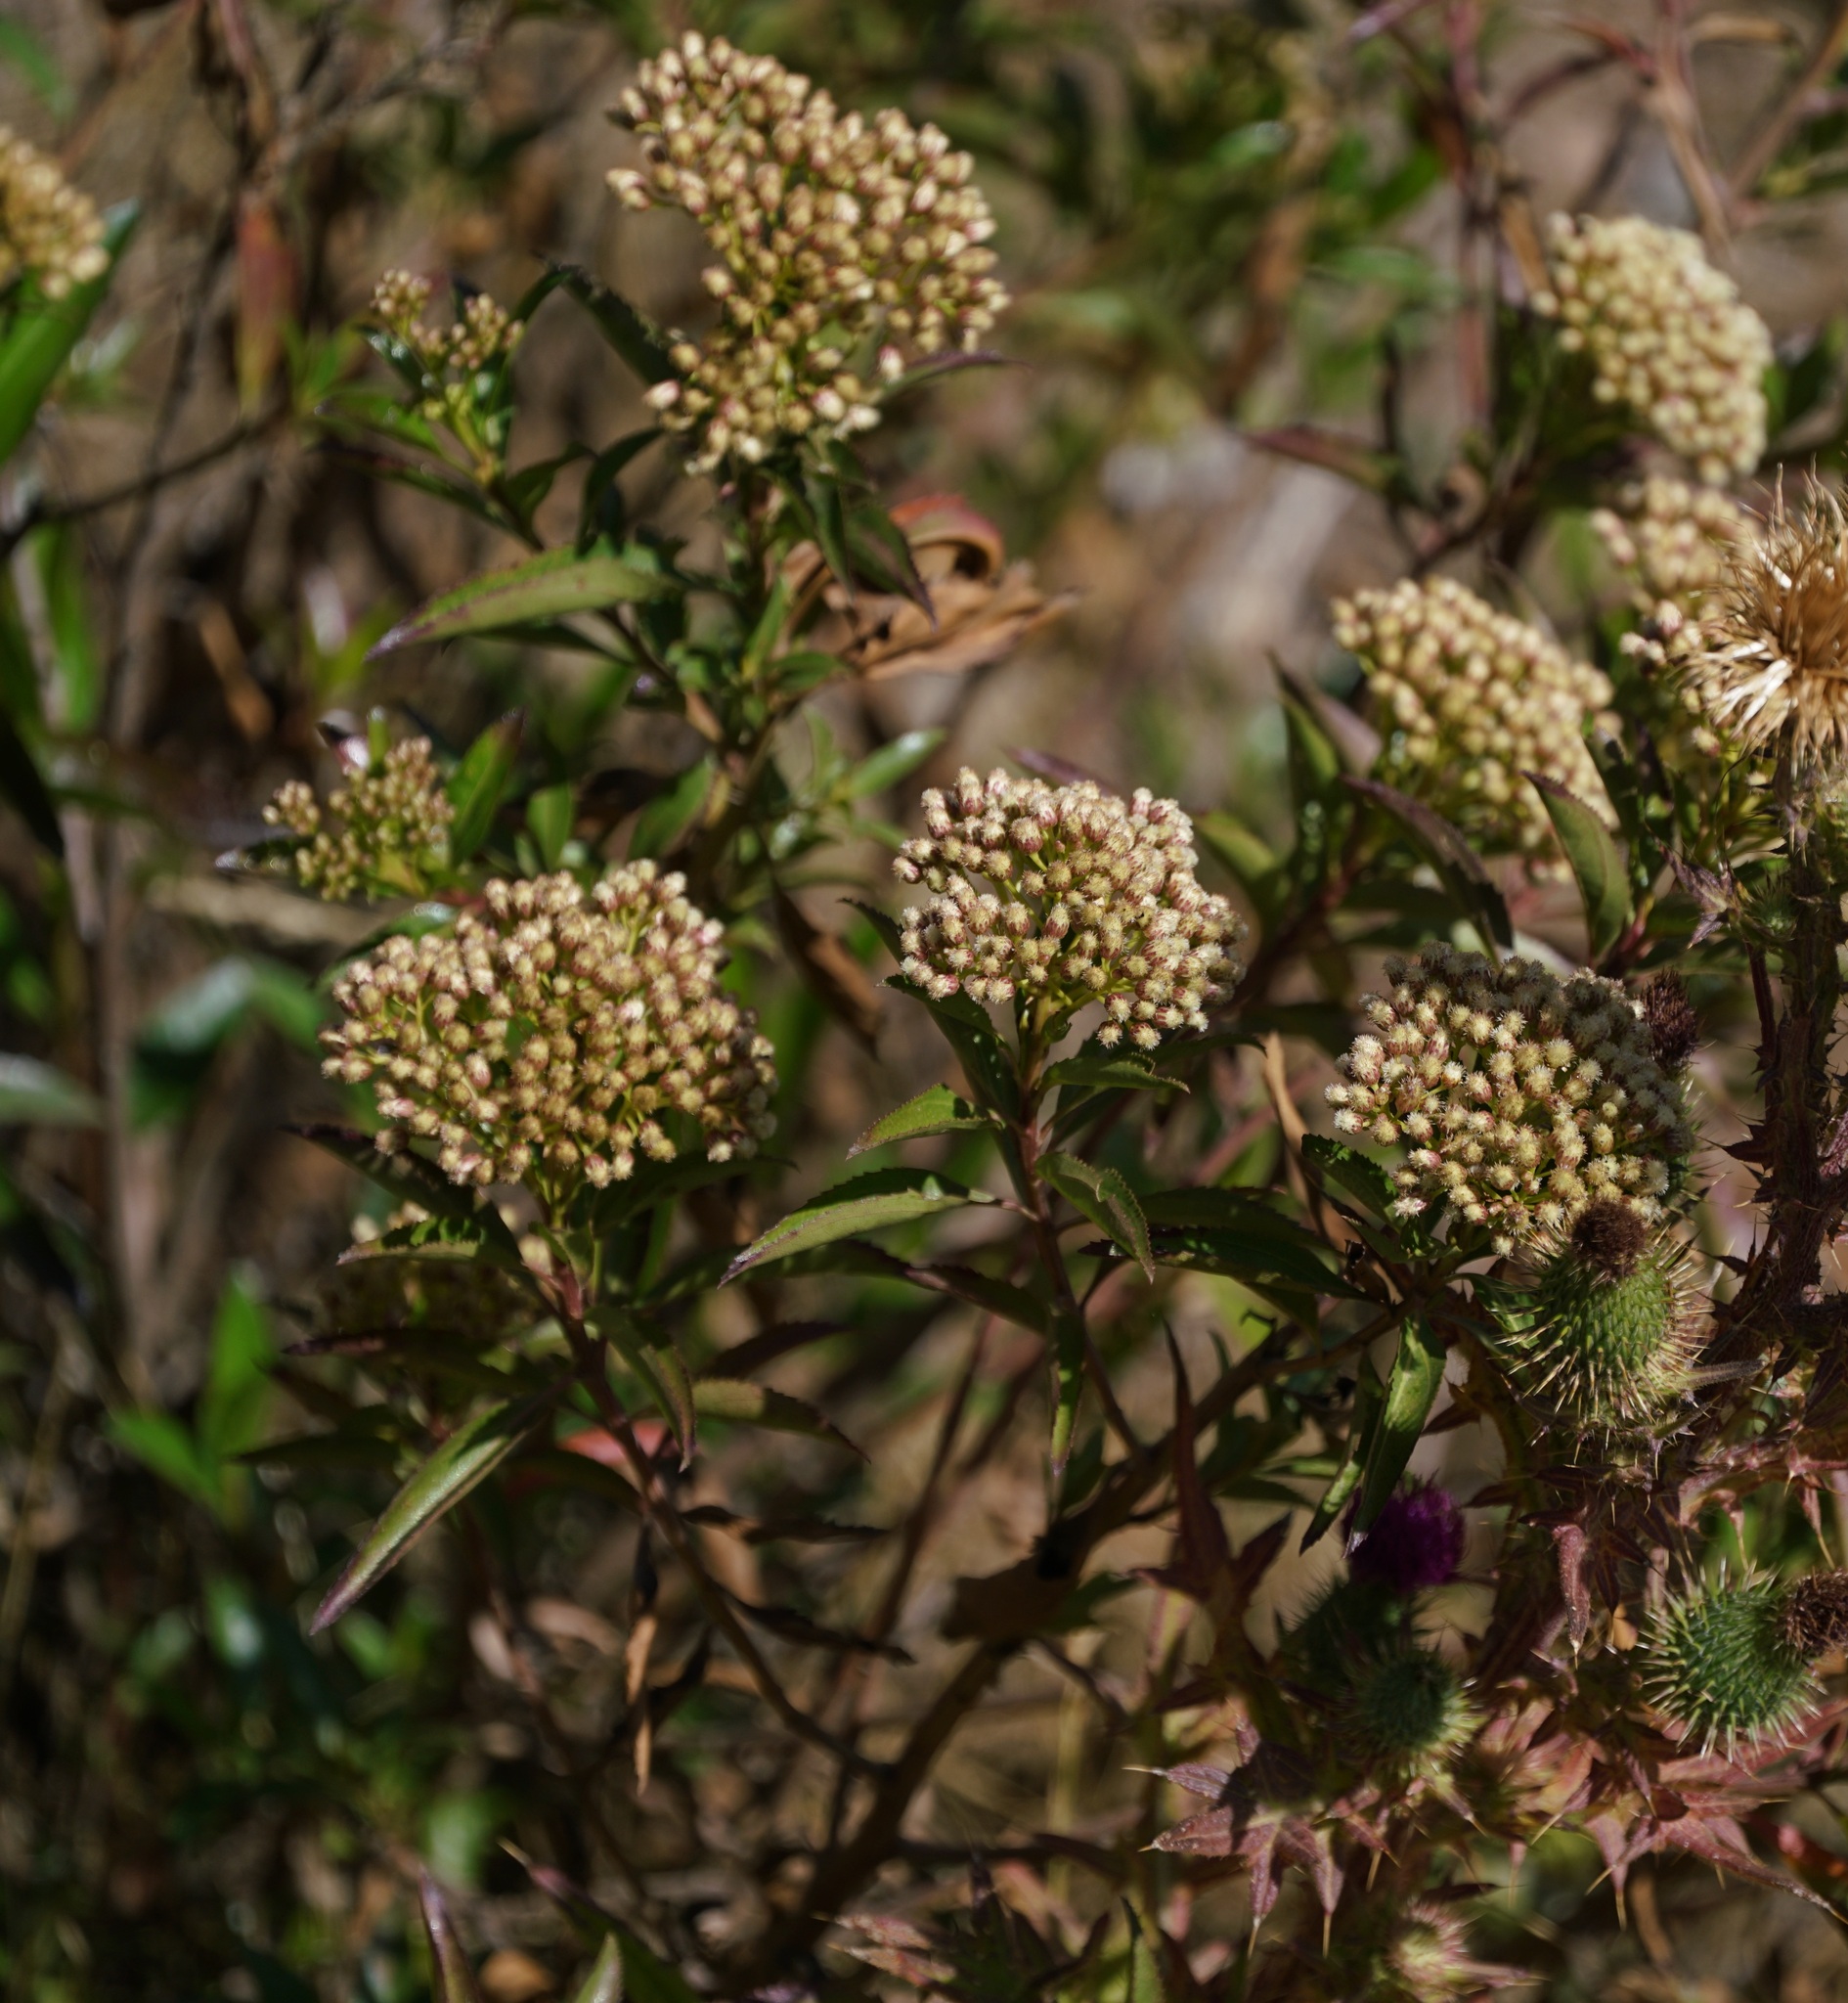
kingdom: Plantae
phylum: Tracheophyta
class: Magnoliopsida
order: Asterales
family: Asteraceae
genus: Baccharis
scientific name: Baccharis latifolia
